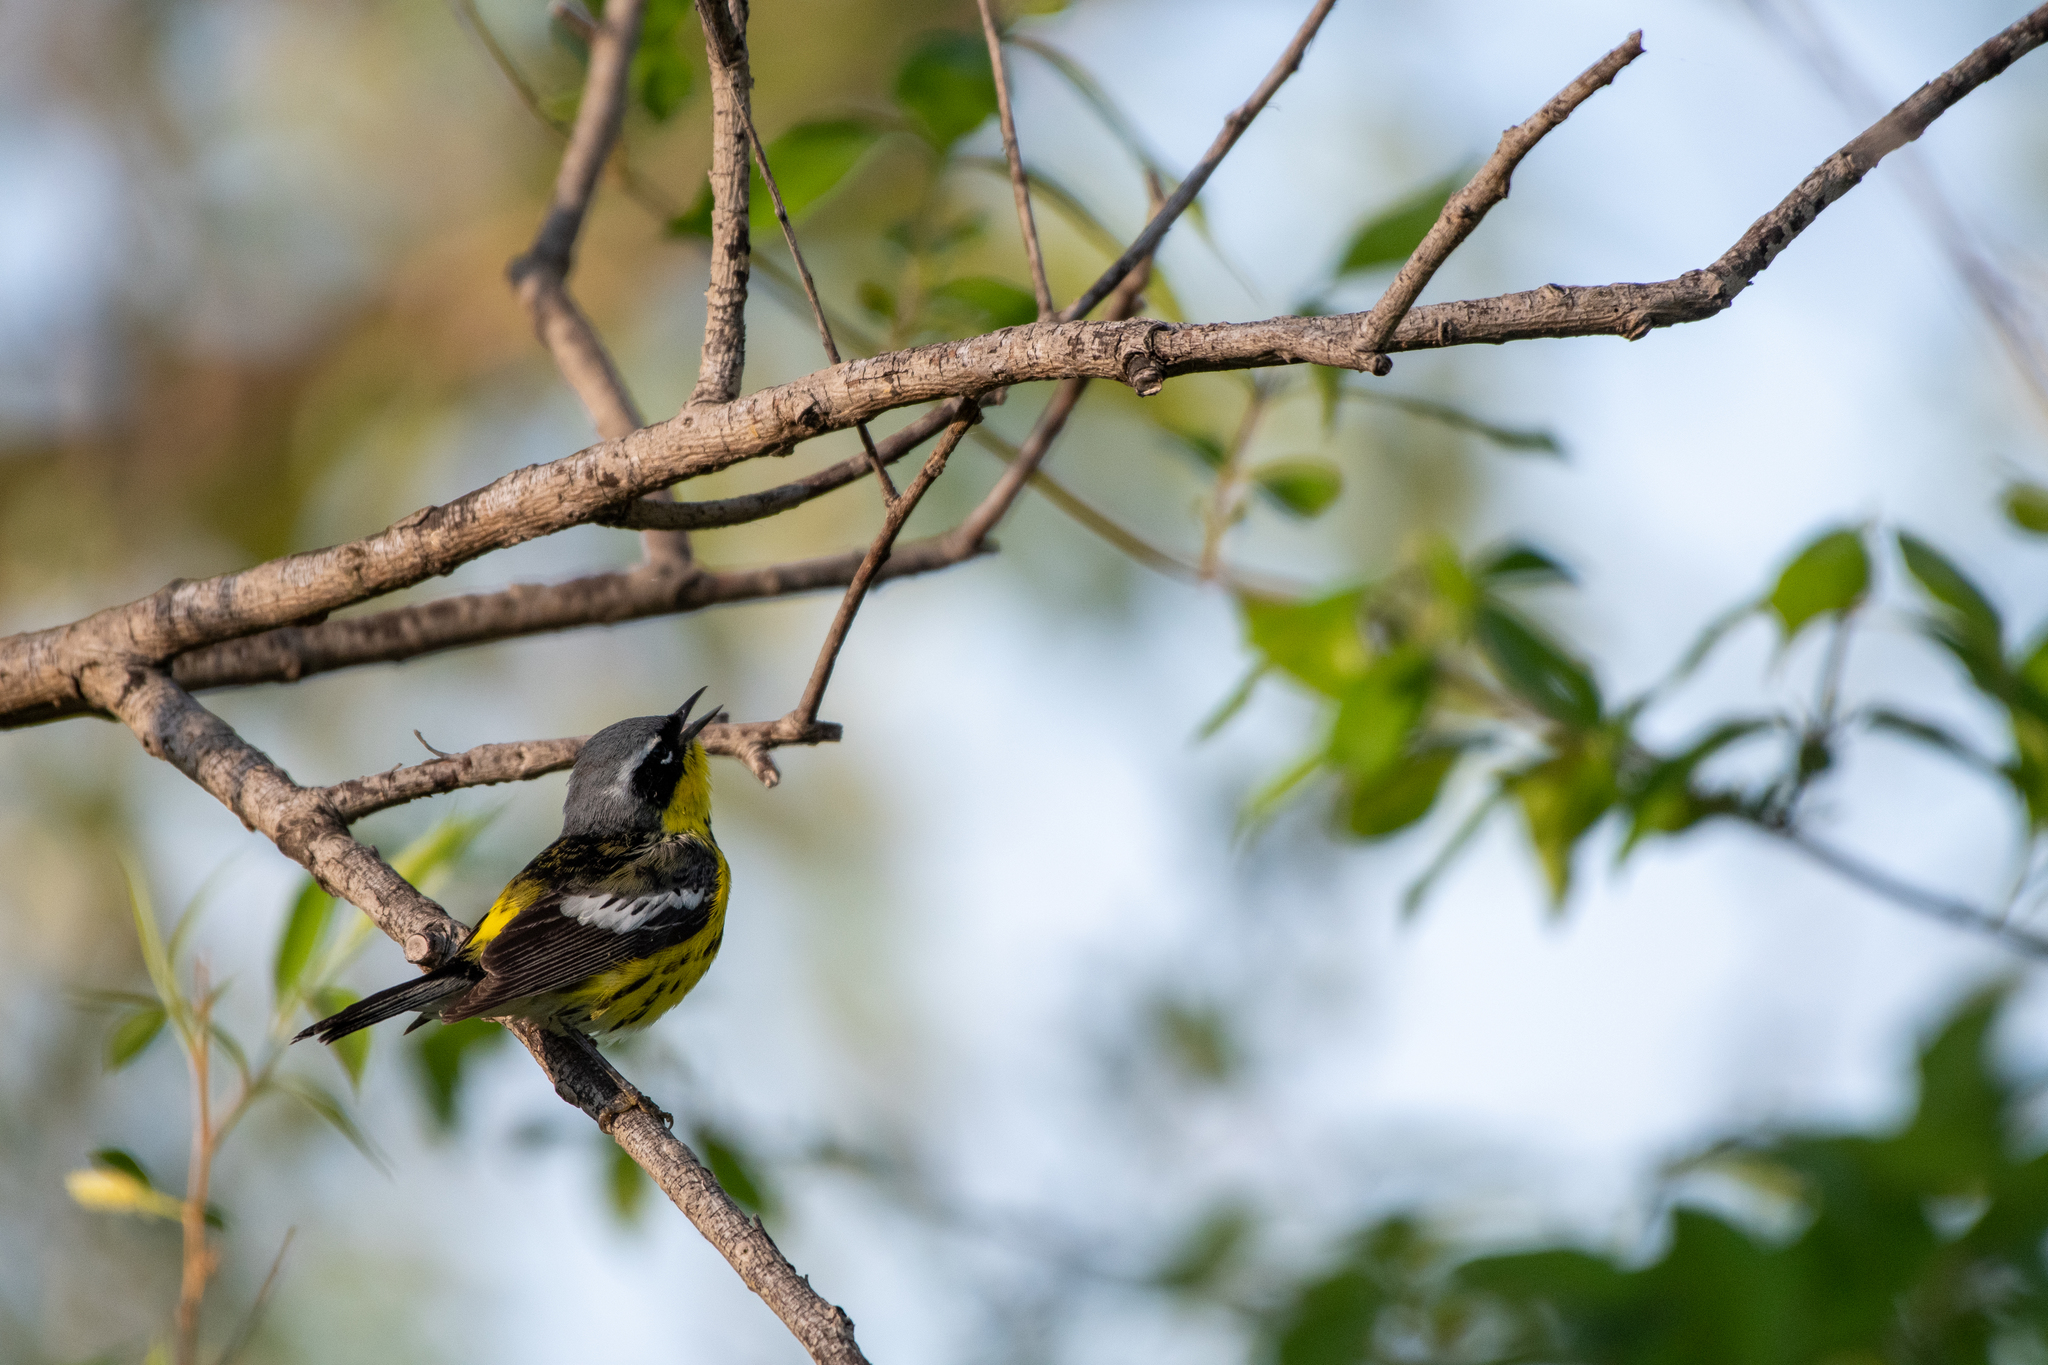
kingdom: Animalia
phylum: Chordata
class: Aves
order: Passeriformes
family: Parulidae
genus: Setophaga
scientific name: Setophaga magnolia
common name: Magnolia warbler
